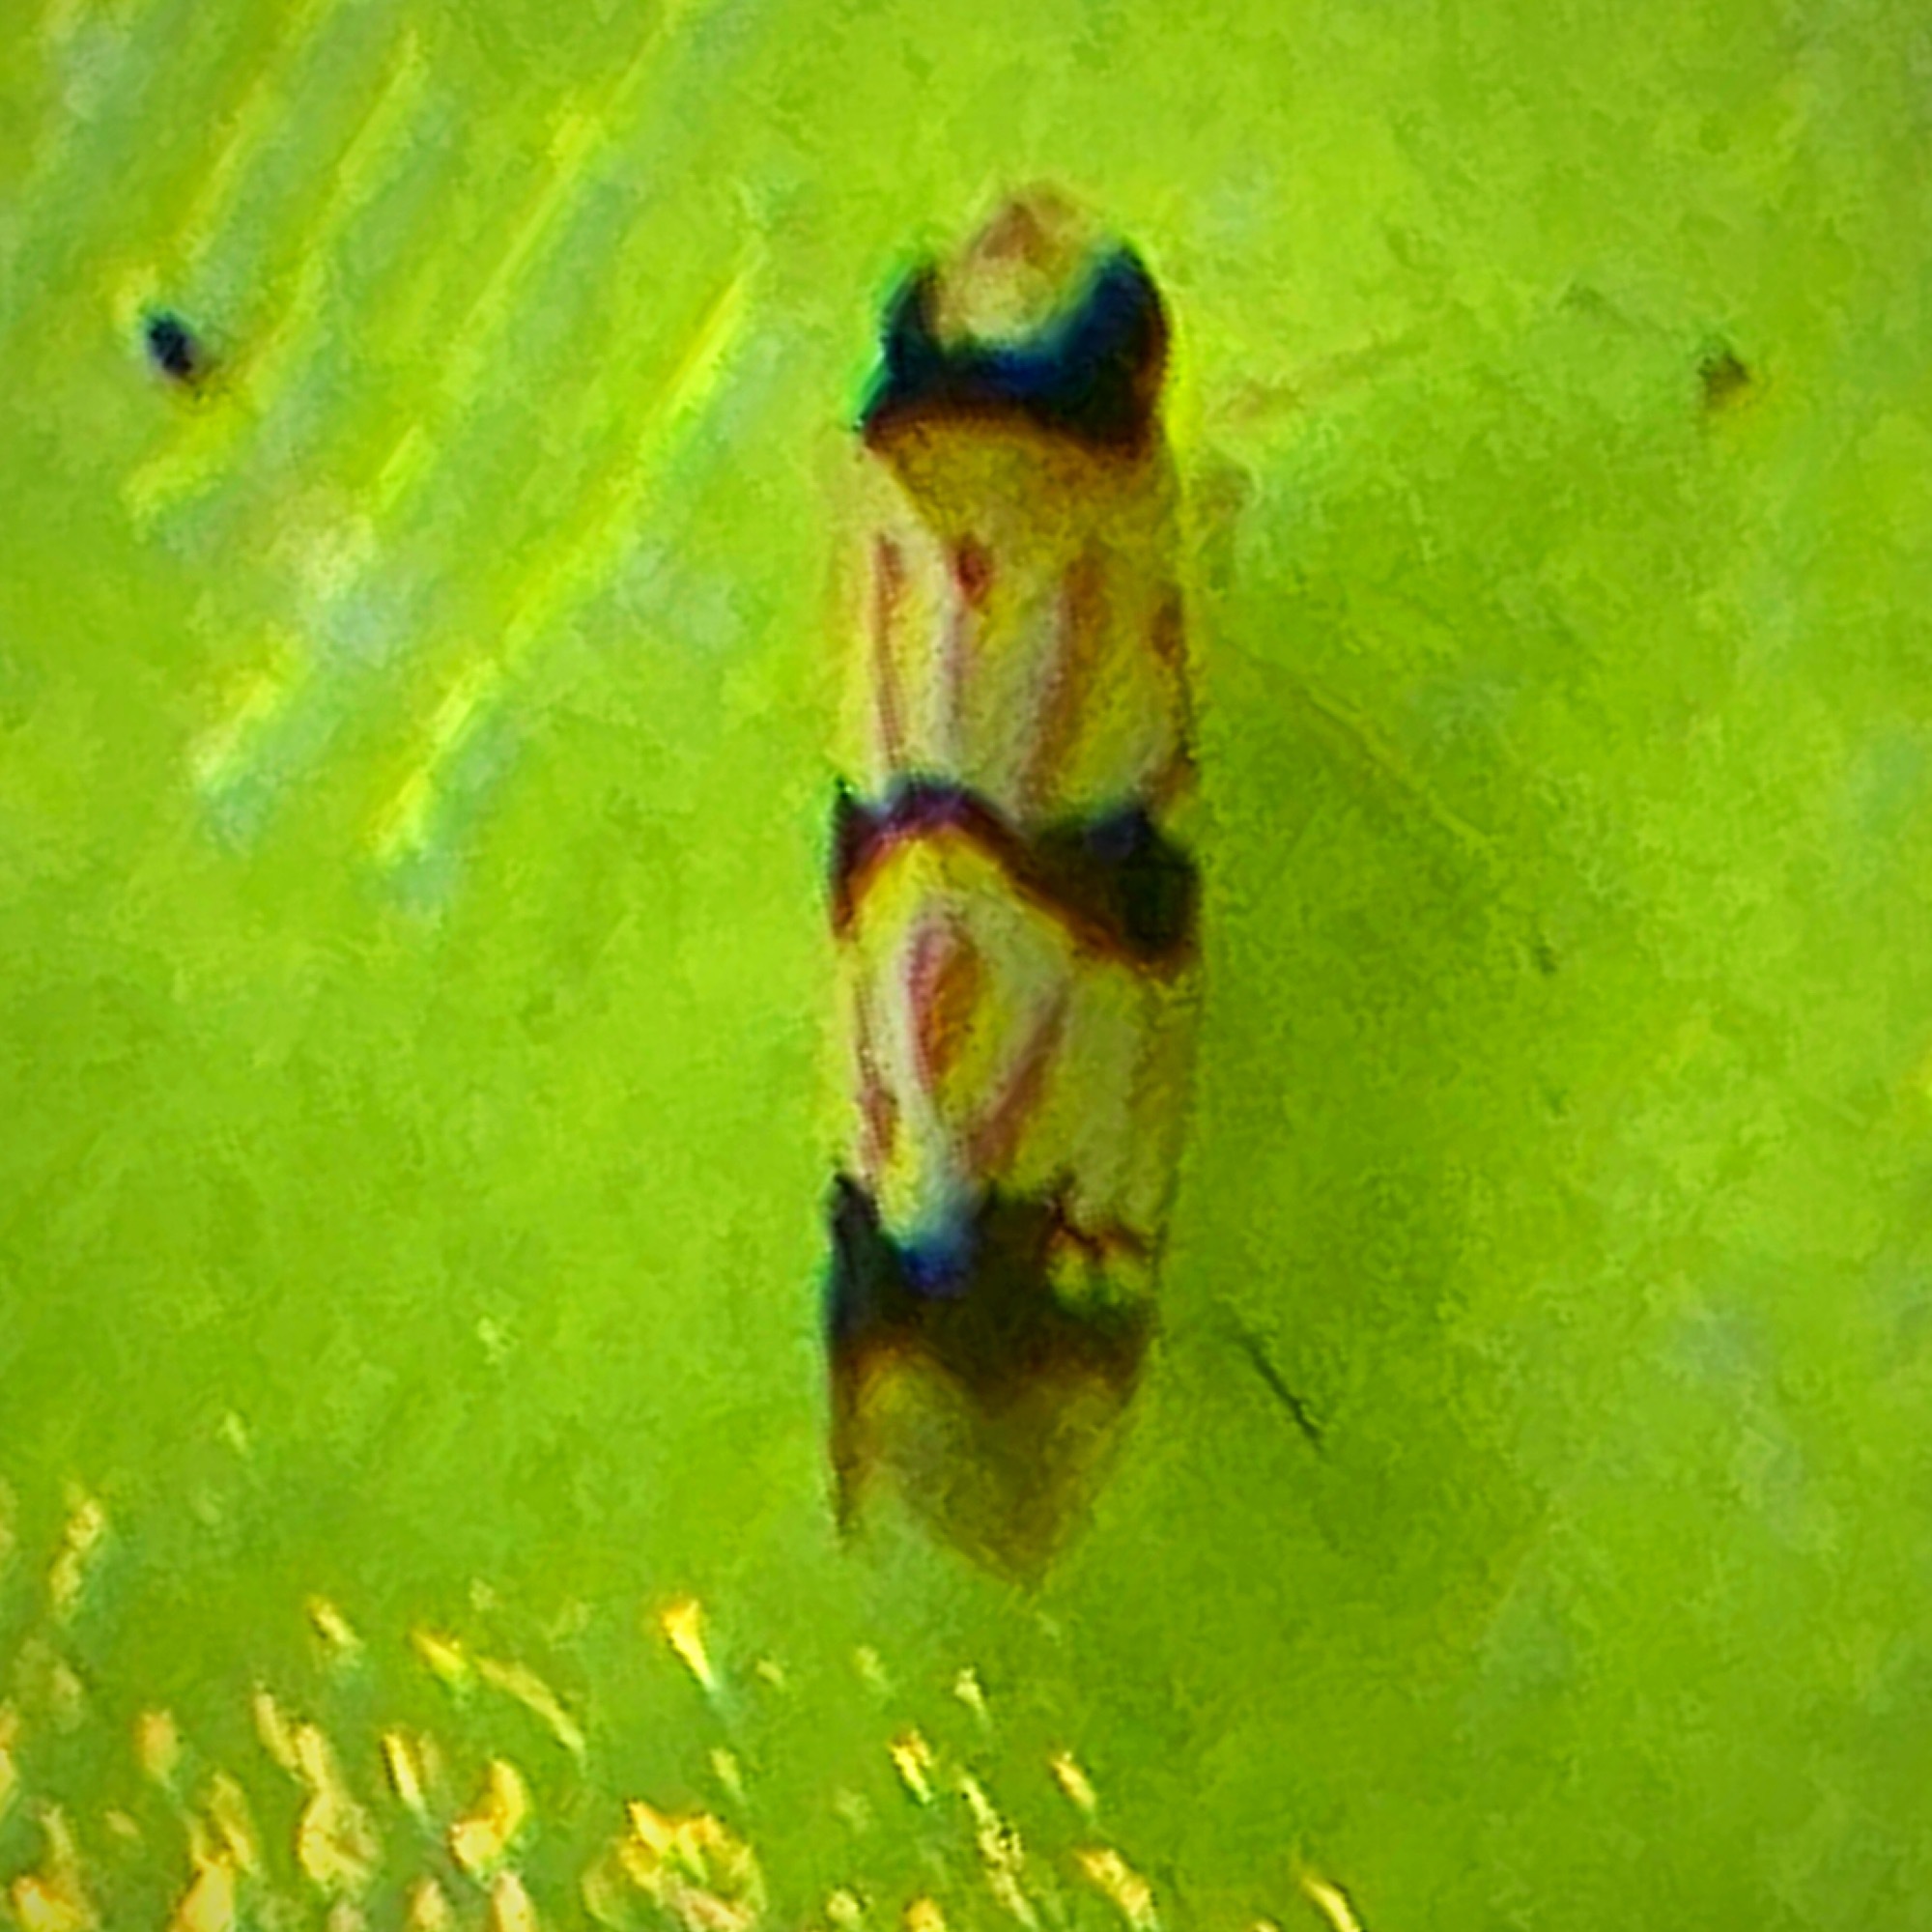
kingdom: Animalia
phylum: Arthropoda
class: Insecta
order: Hemiptera
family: Cicadellidae
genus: Erythroneura
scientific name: Erythroneura cymbium
